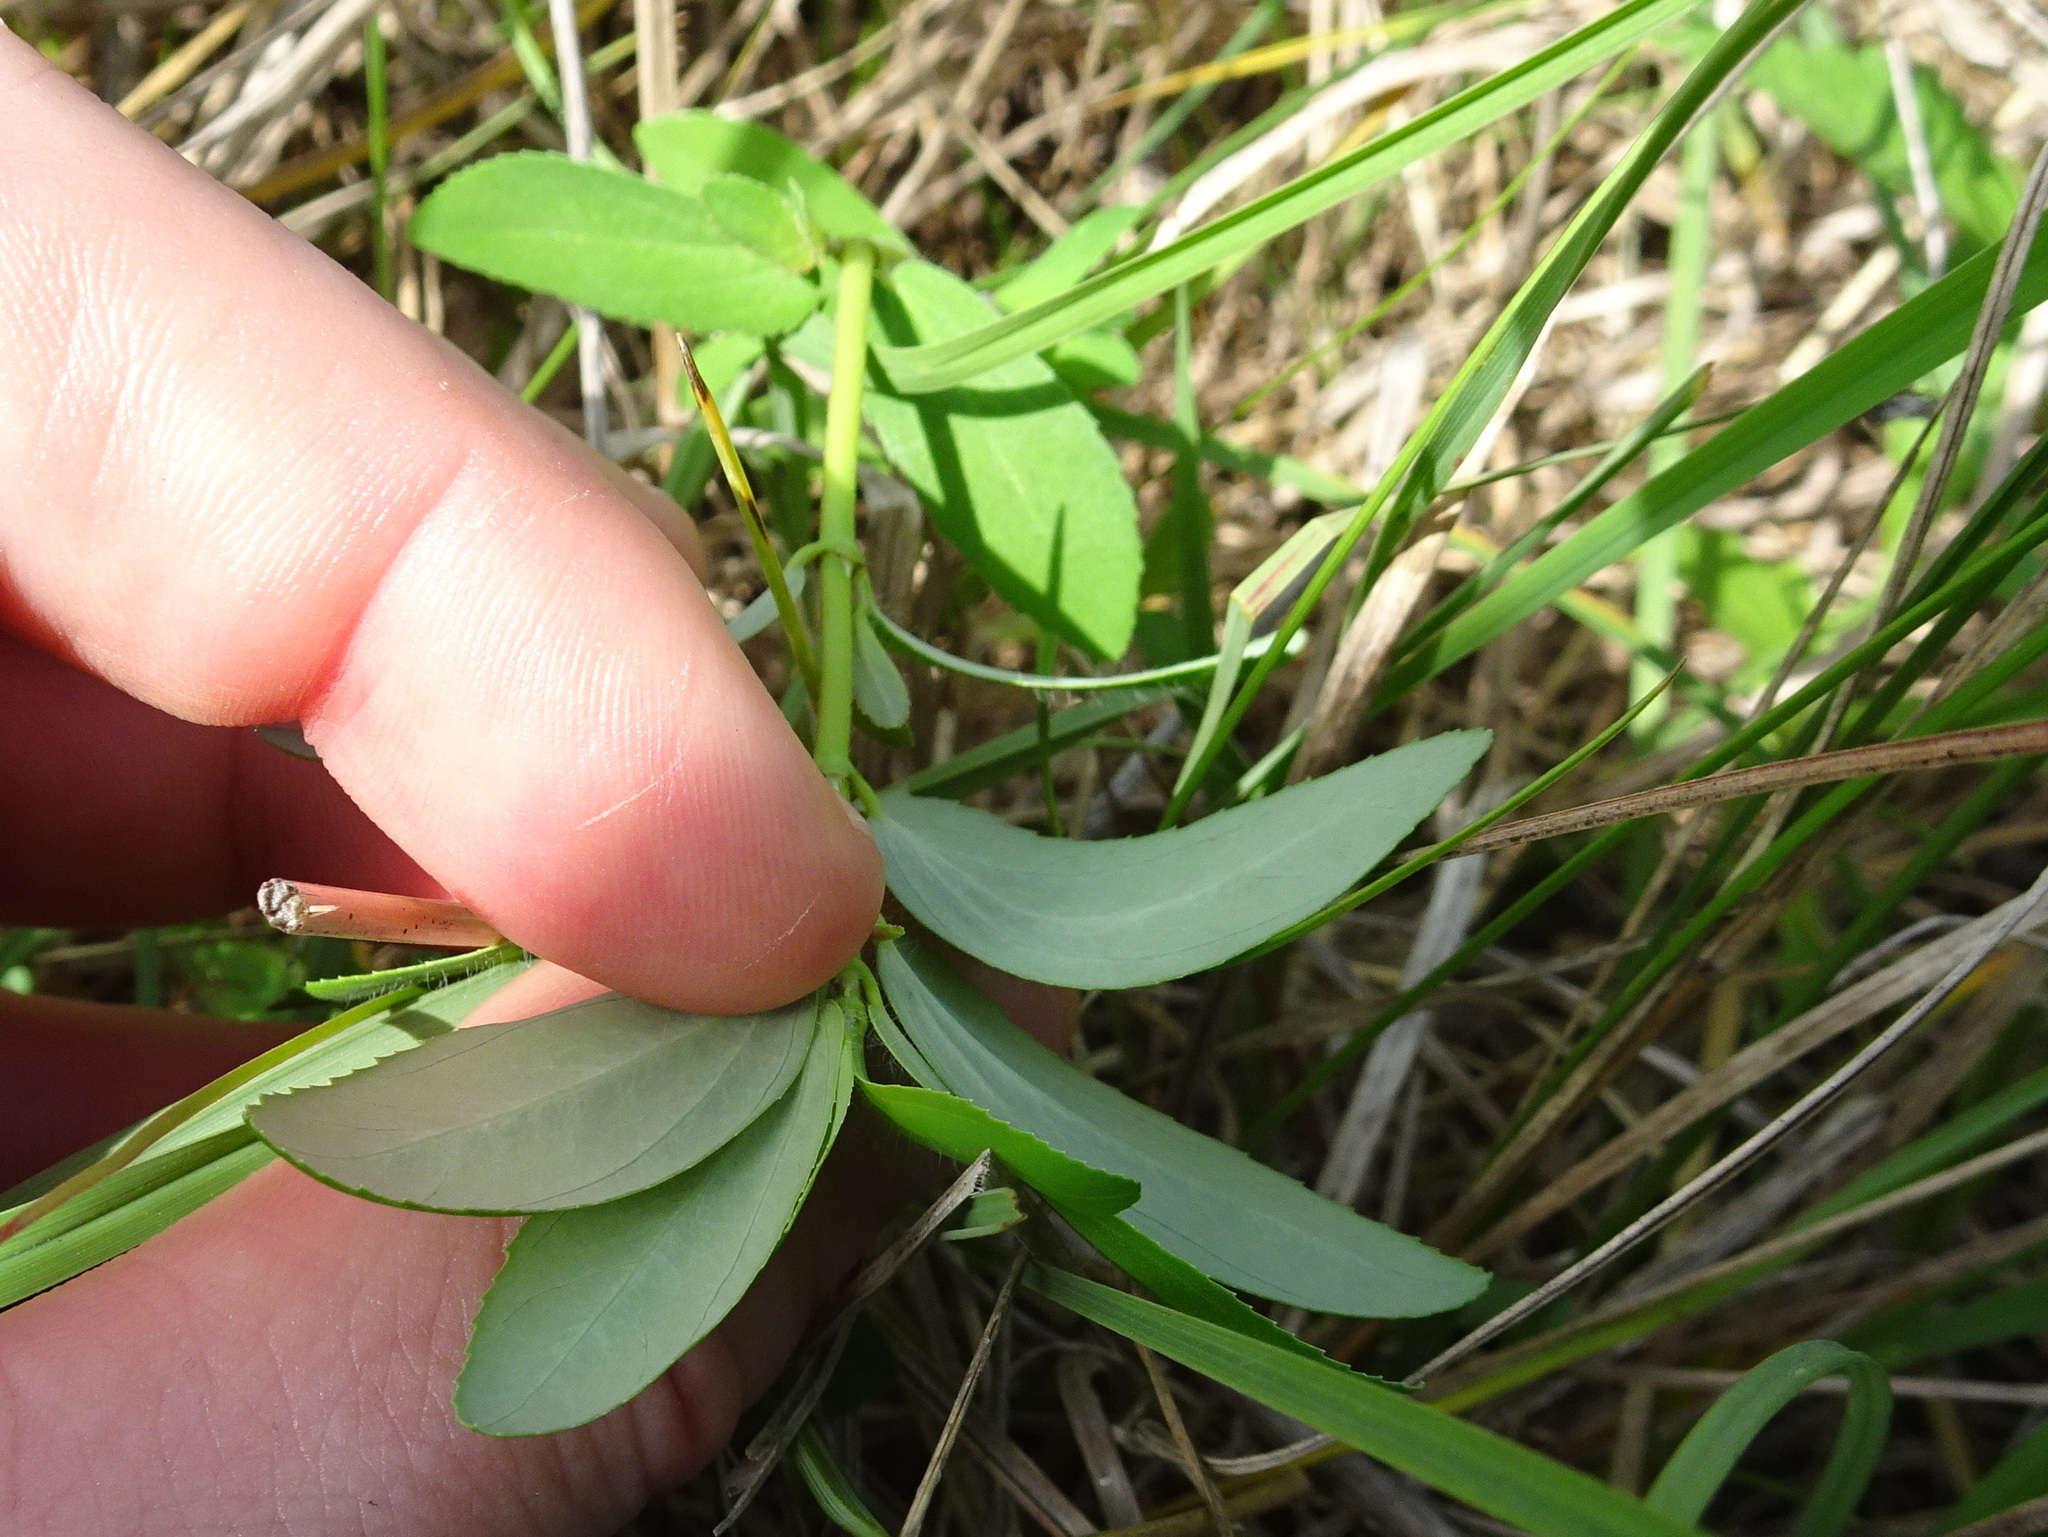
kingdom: Plantae
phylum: Tracheophyta
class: Magnoliopsida
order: Malpighiales
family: Euphorbiaceae
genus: Euphorbia
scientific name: Euphorbia nutans
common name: Eyebane
